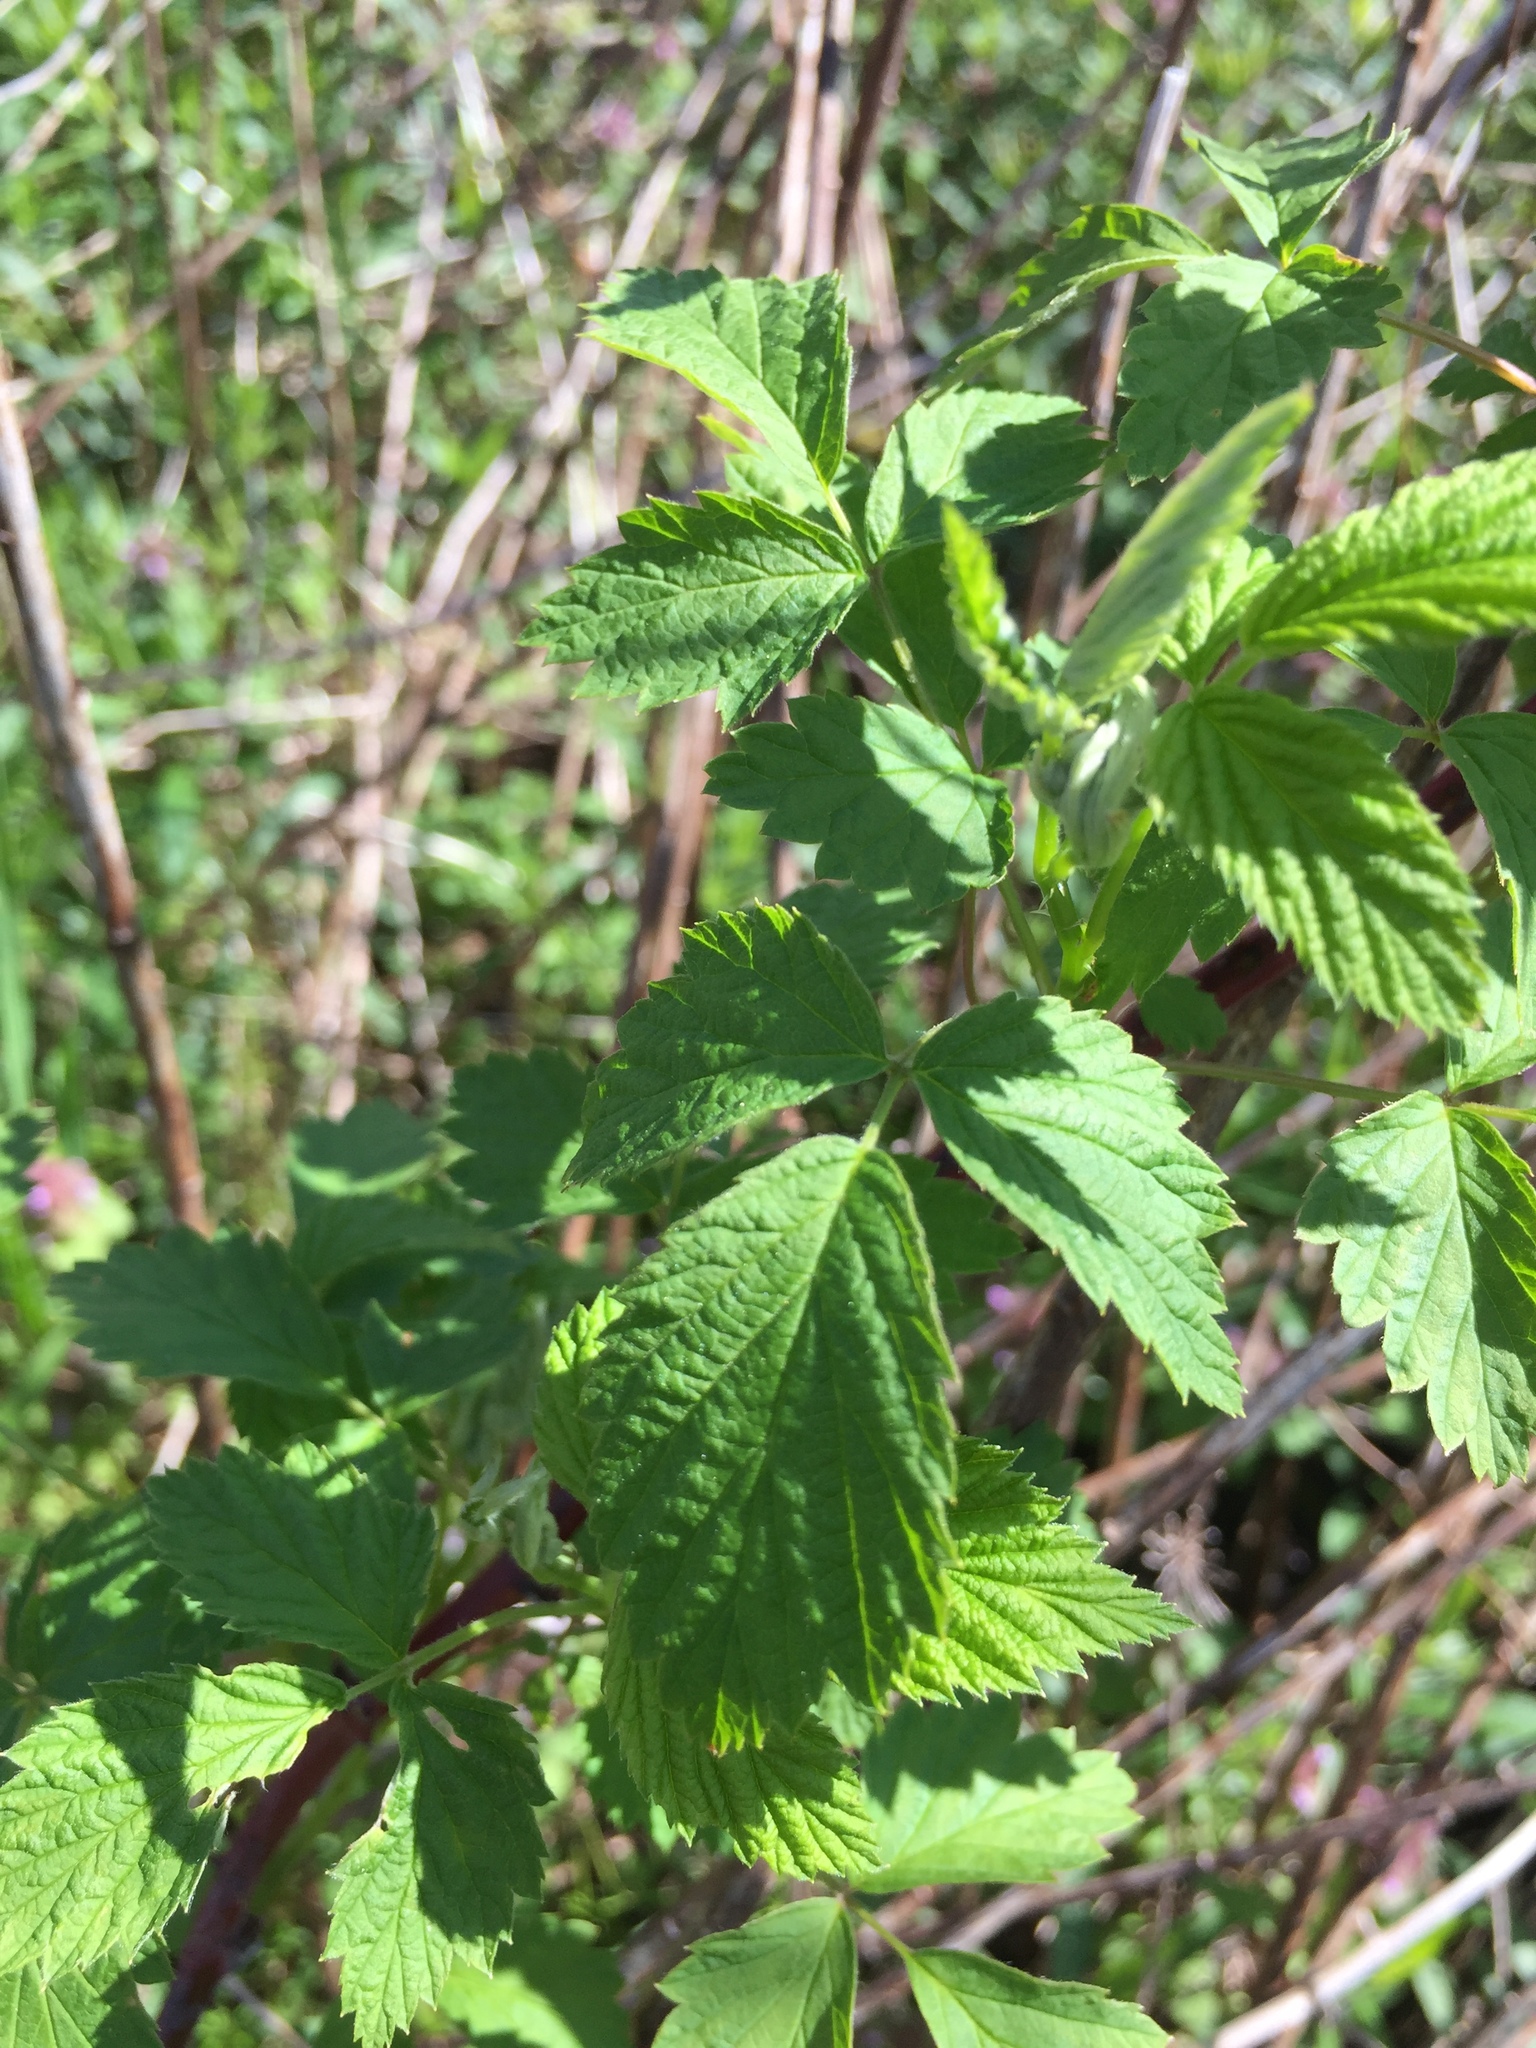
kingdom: Plantae
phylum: Tracheophyta
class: Magnoliopsida
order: Rosales
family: Rosaceae
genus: Rubus
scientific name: Rubus occidentalis
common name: Black raspberry
